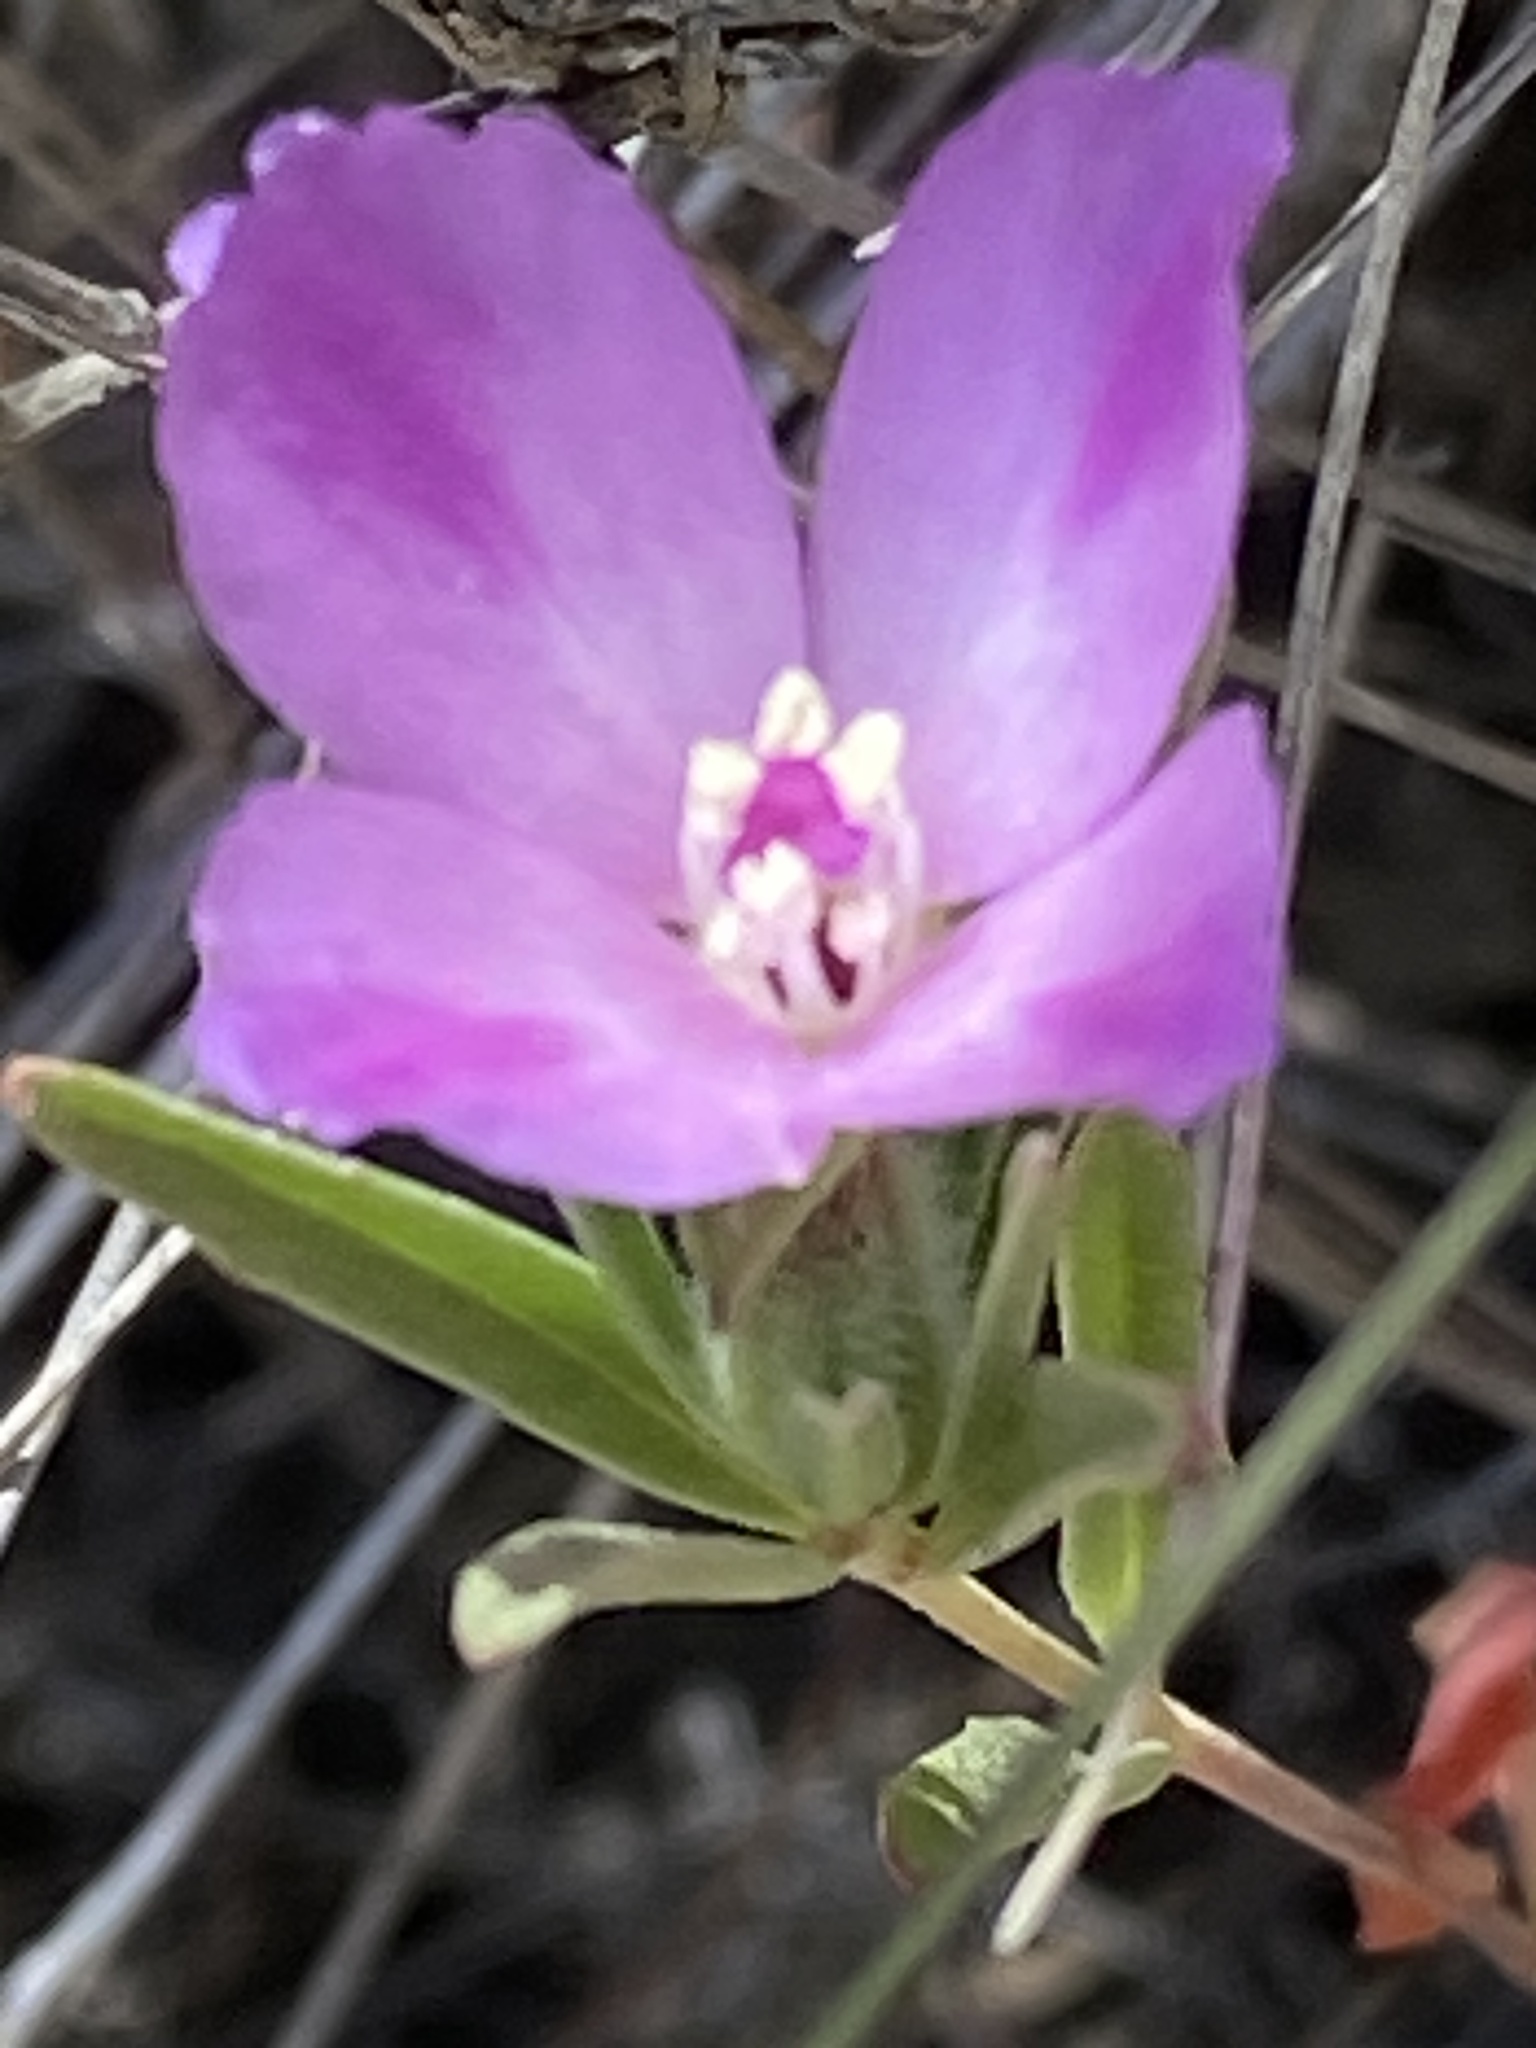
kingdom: Plantae
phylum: Tracheophyta
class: Magnoliopsida
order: Myrtales
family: Onagraceae
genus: Clarkia
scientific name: Clarkia purpurea
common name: Purple clarkia
